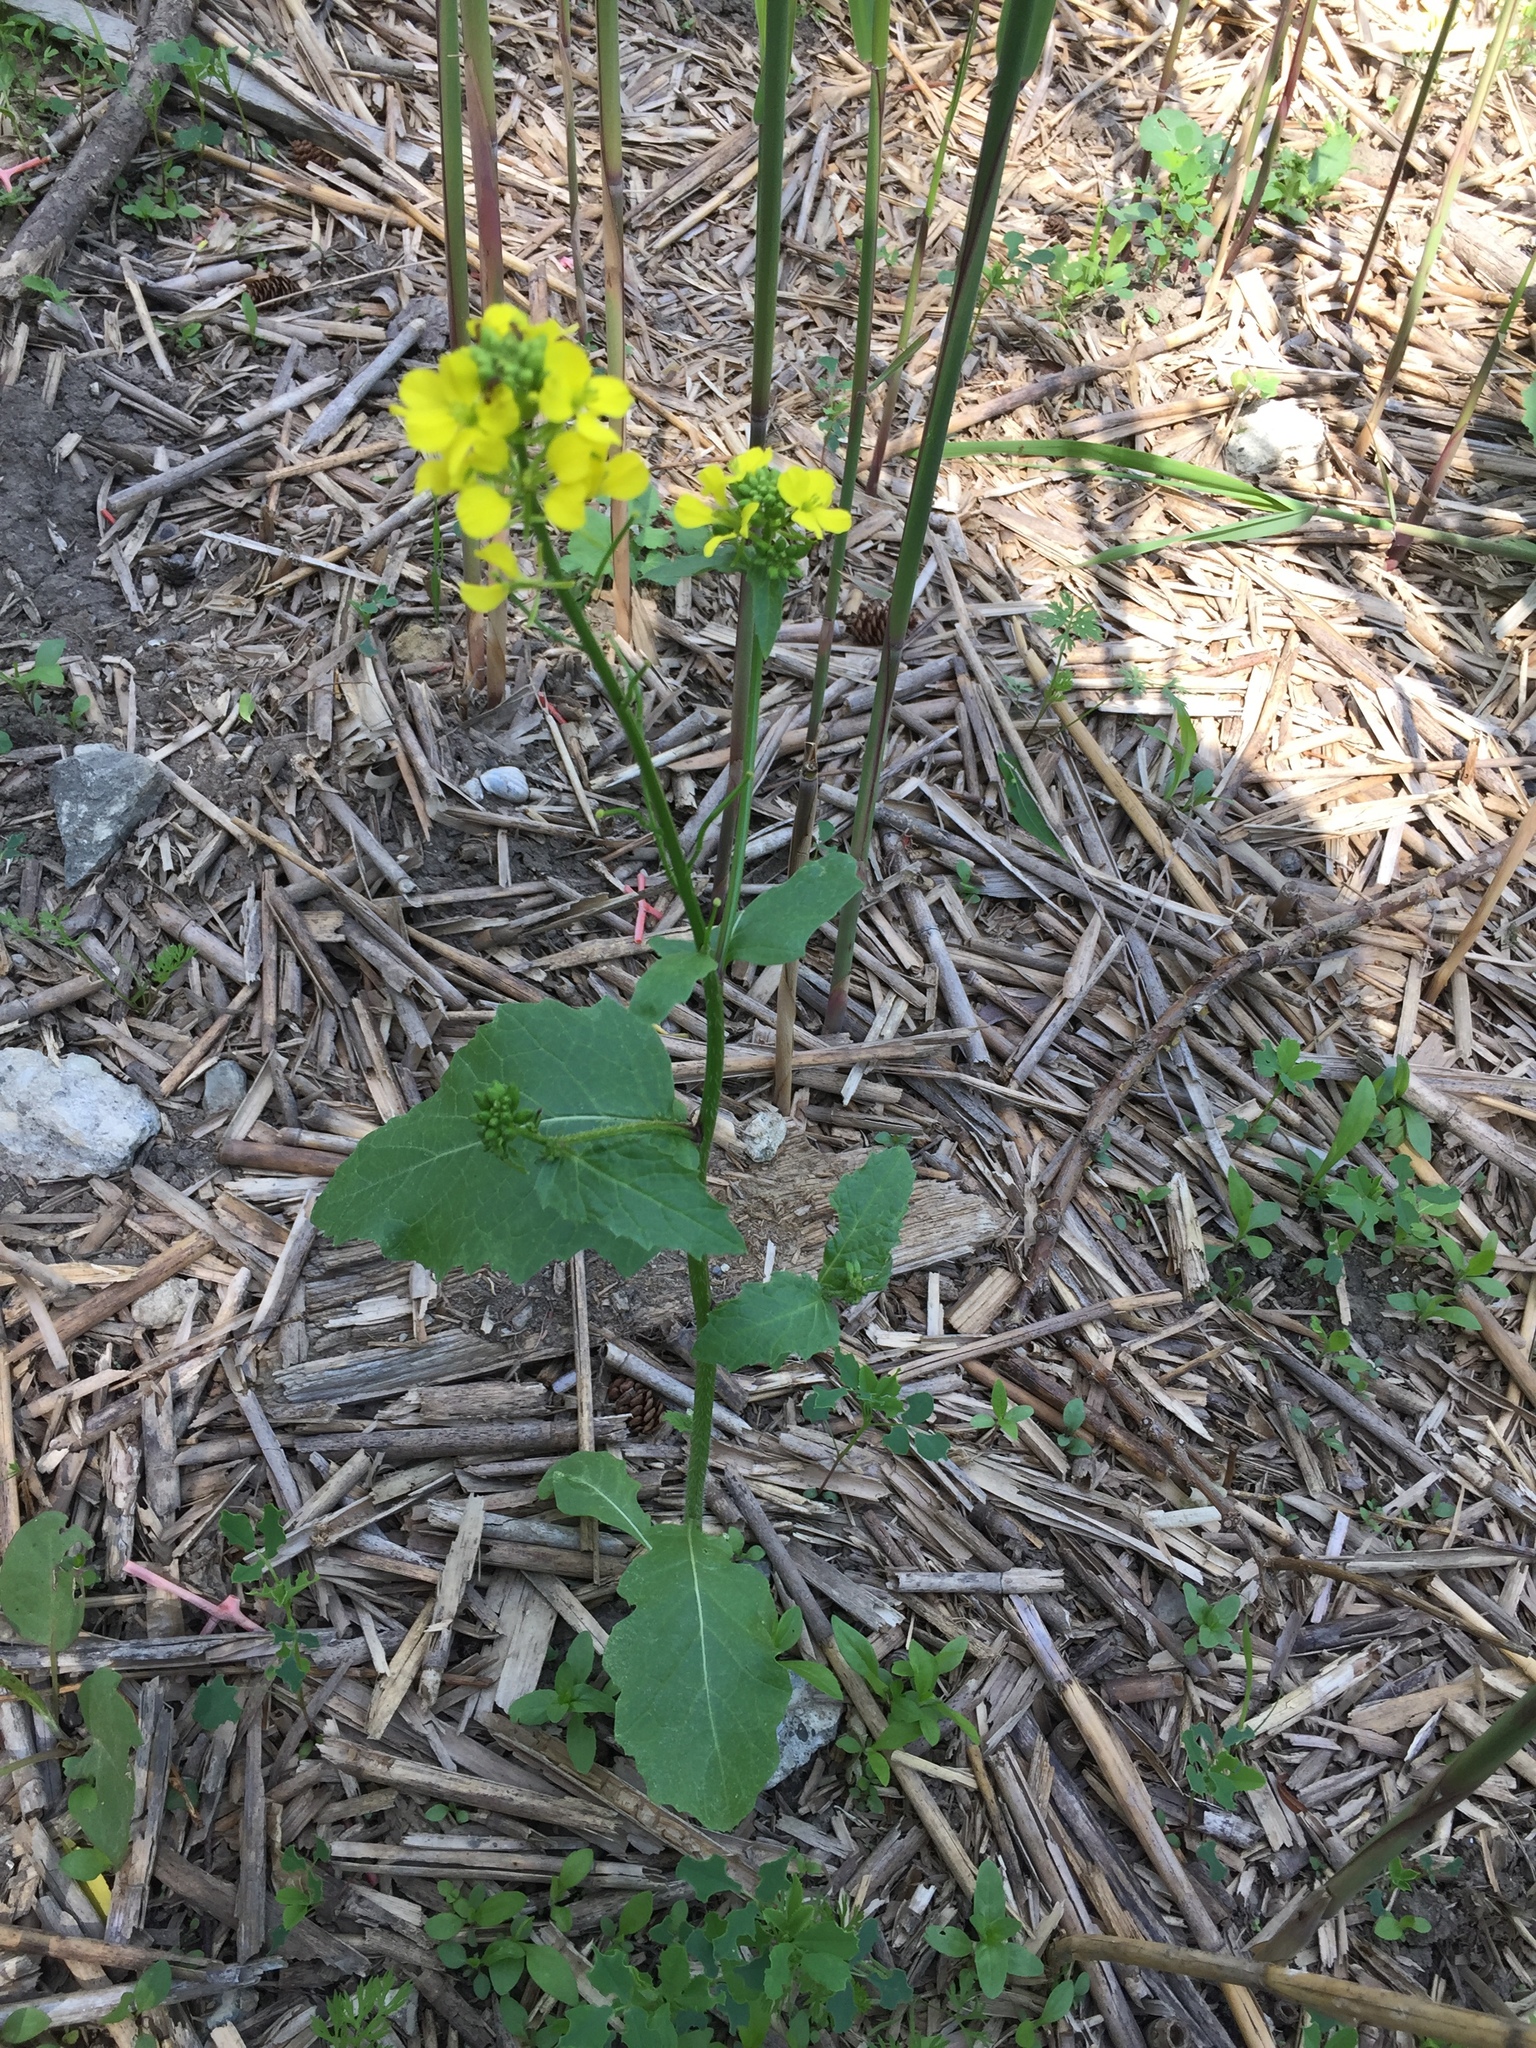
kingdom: Plantae
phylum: Tracheophyta
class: Magnoliopsida
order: Brassicales
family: Brassicaceae
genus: Sinapis
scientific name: Sinapis arvensis
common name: Charlock
